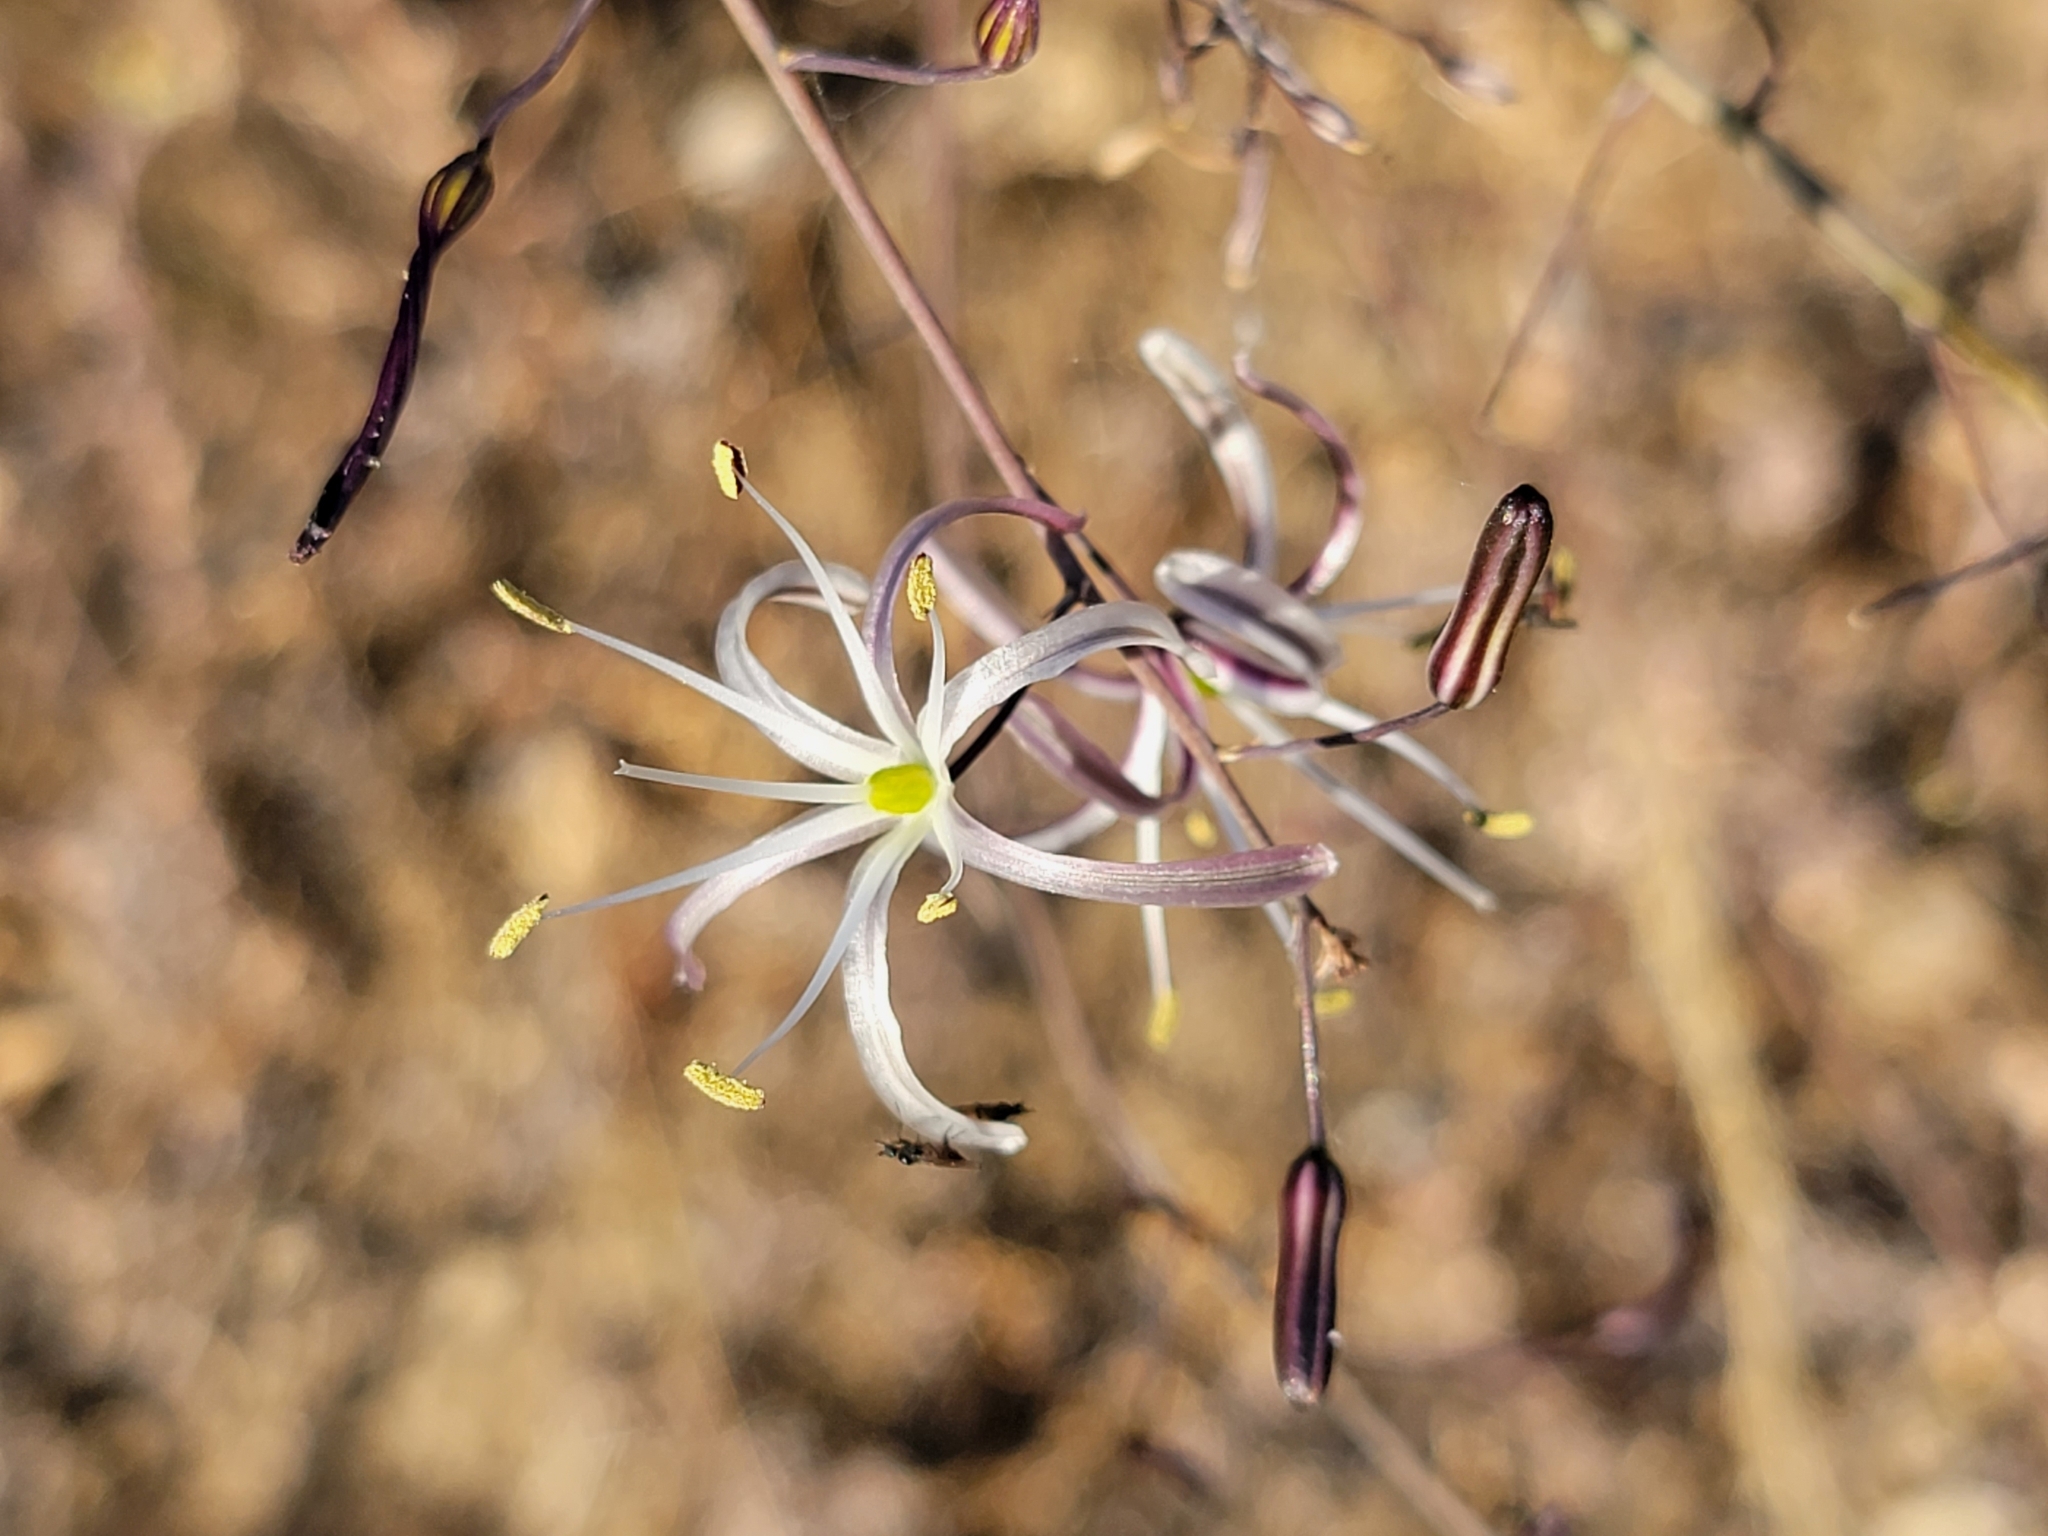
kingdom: Plantae
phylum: Tracheophyta
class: Liliopsida
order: Asparagales
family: Asparagaceae
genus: Chlorogalum
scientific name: Chlorogalum pomeridianum
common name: Amole
